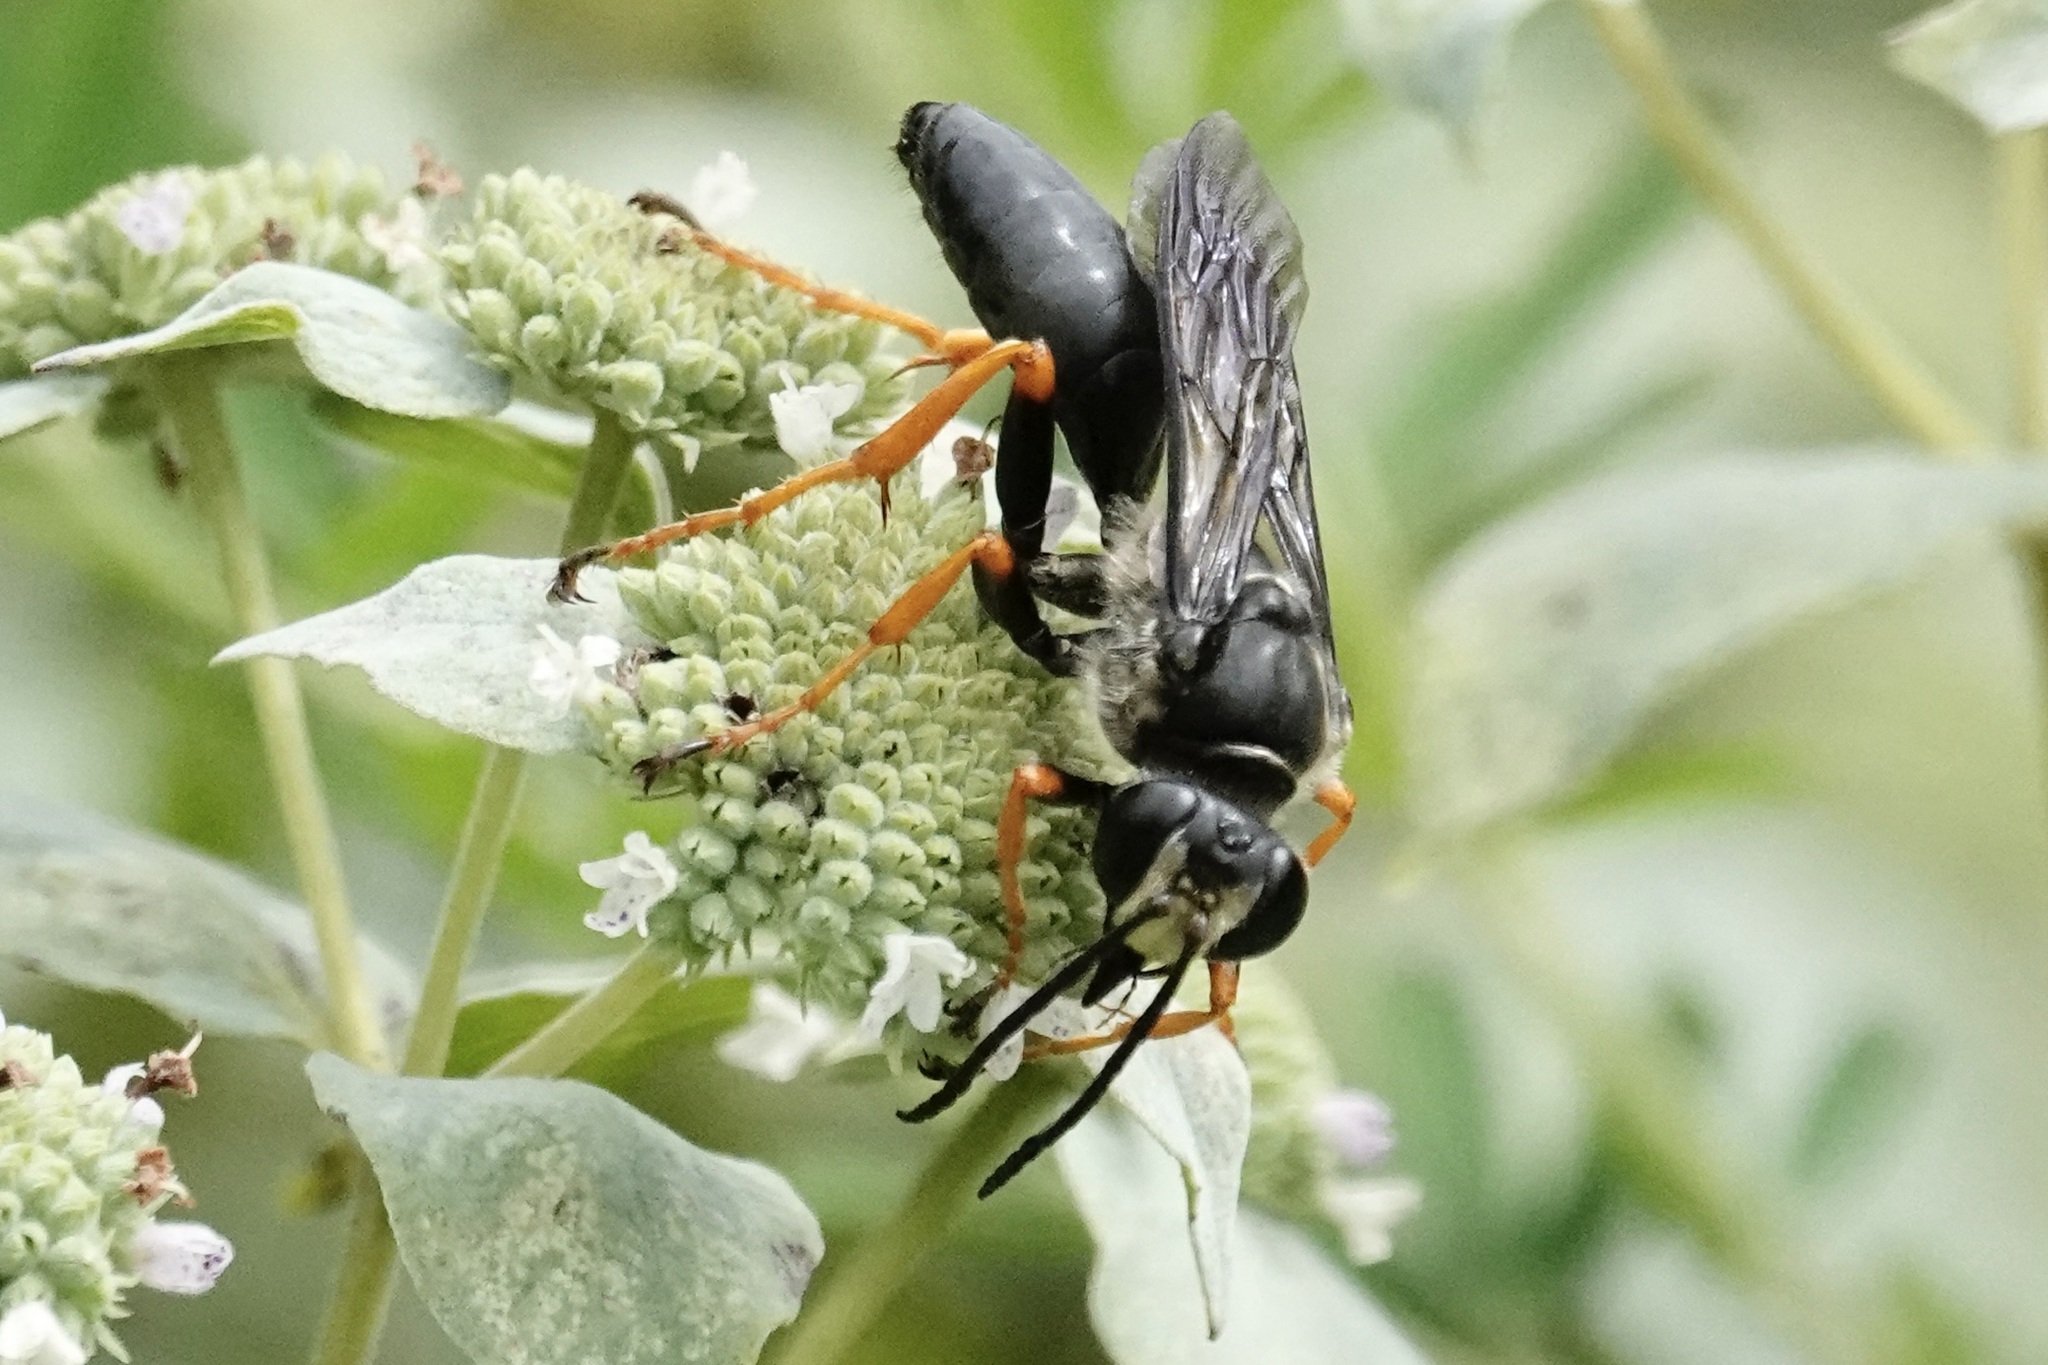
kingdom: Animalia
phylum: Arthropoda
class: Insecta
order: Hymenoptera
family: Sphecidae
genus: Sphex
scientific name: Sphex nudus
